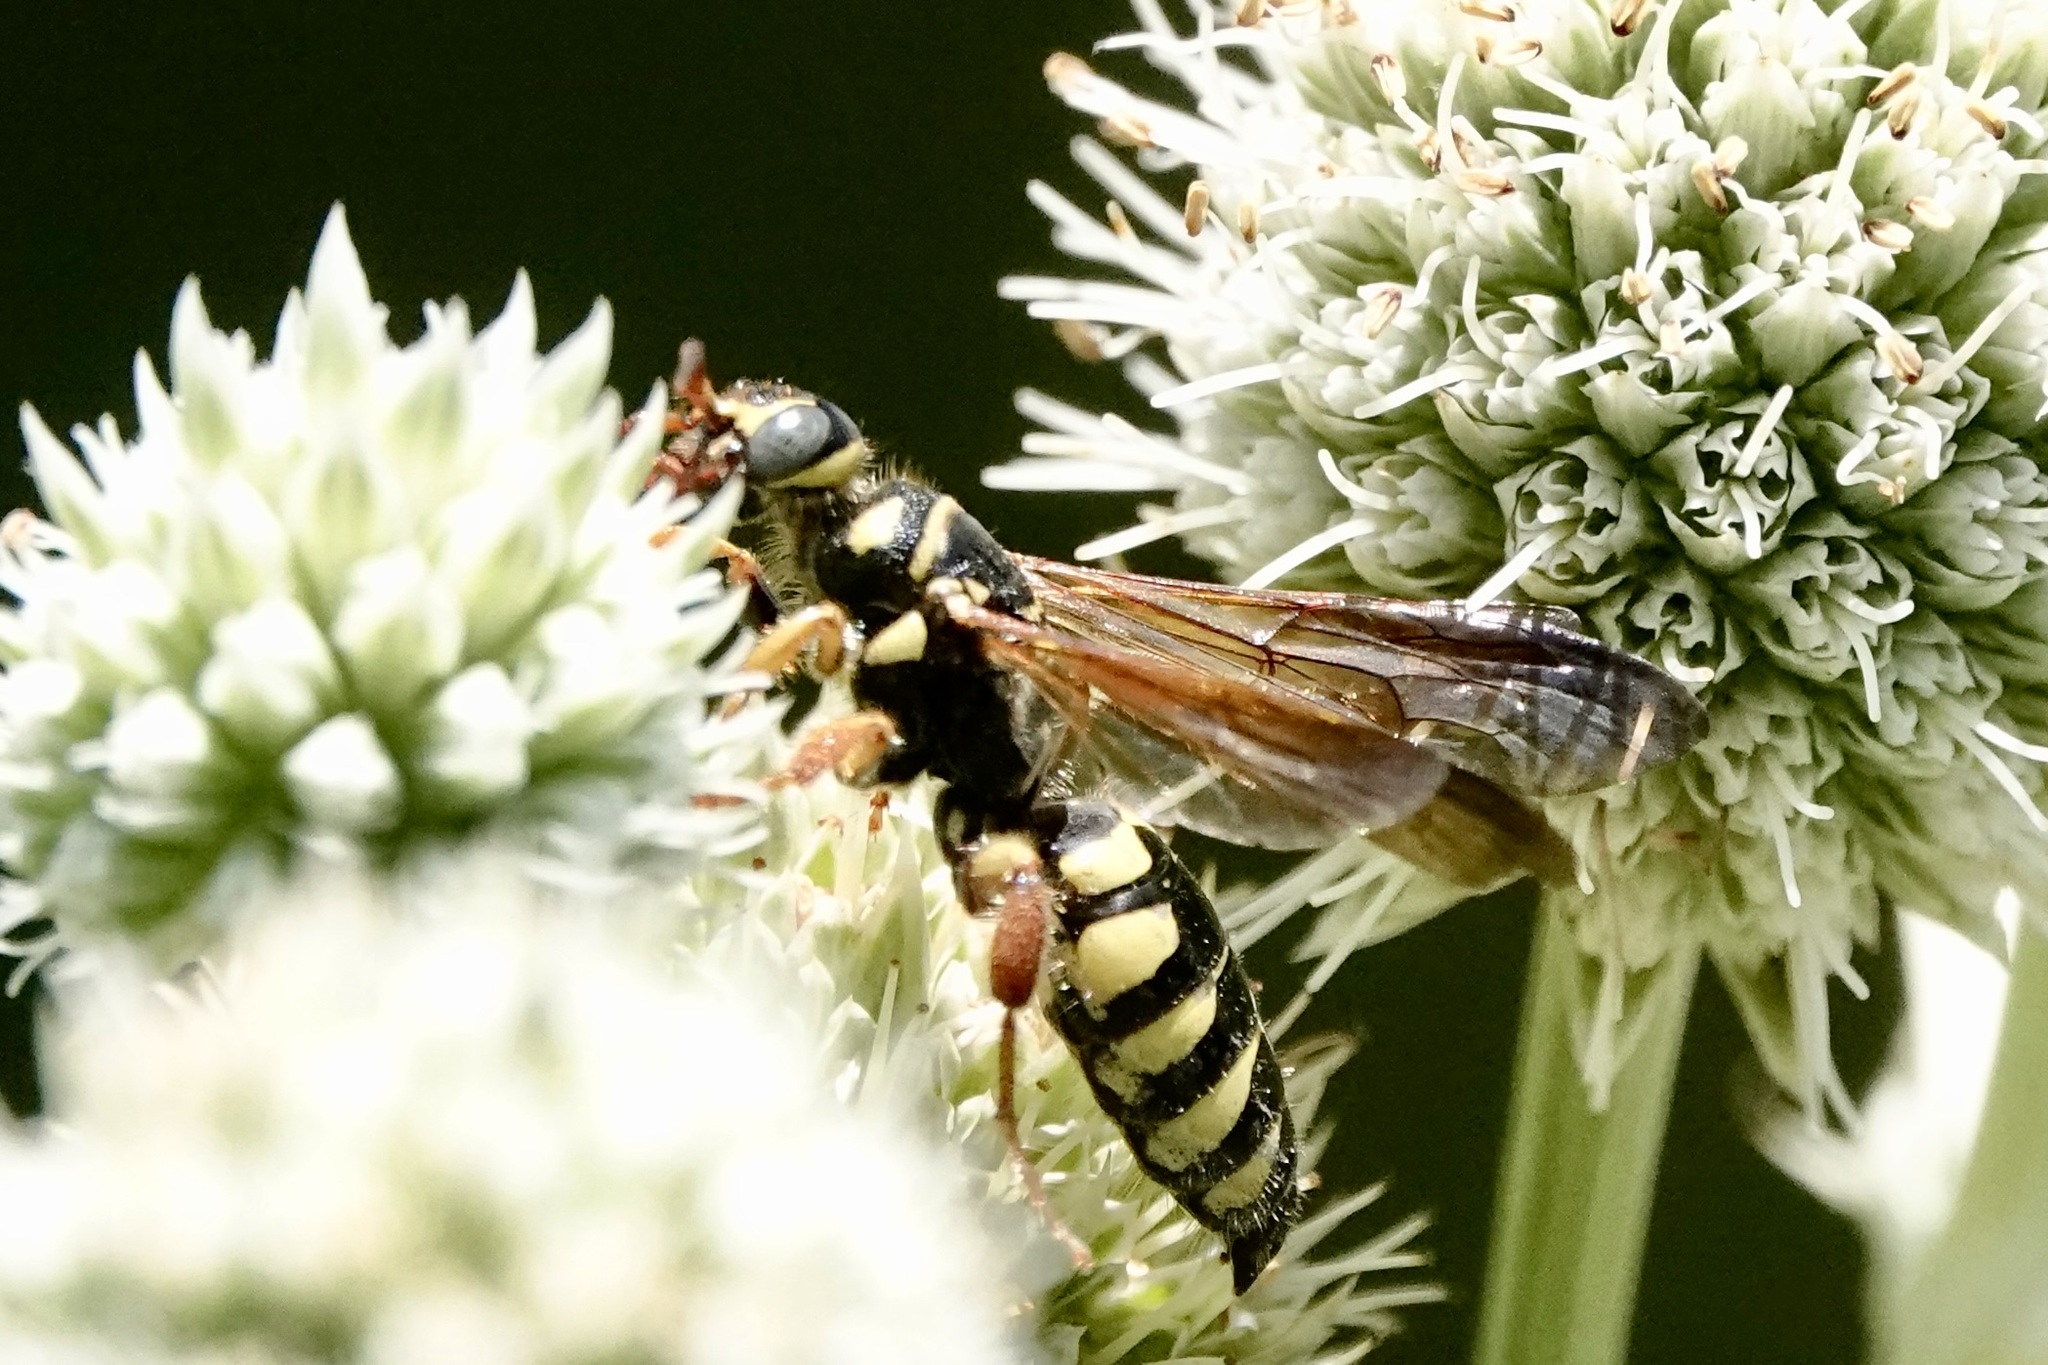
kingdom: Animalia
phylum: Arthropoda
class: Insecta
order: Hymenoptera
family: Tiphiidae
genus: Myzinum
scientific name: Myzinum quinquecinctum
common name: Five-banded thynnid wasp
